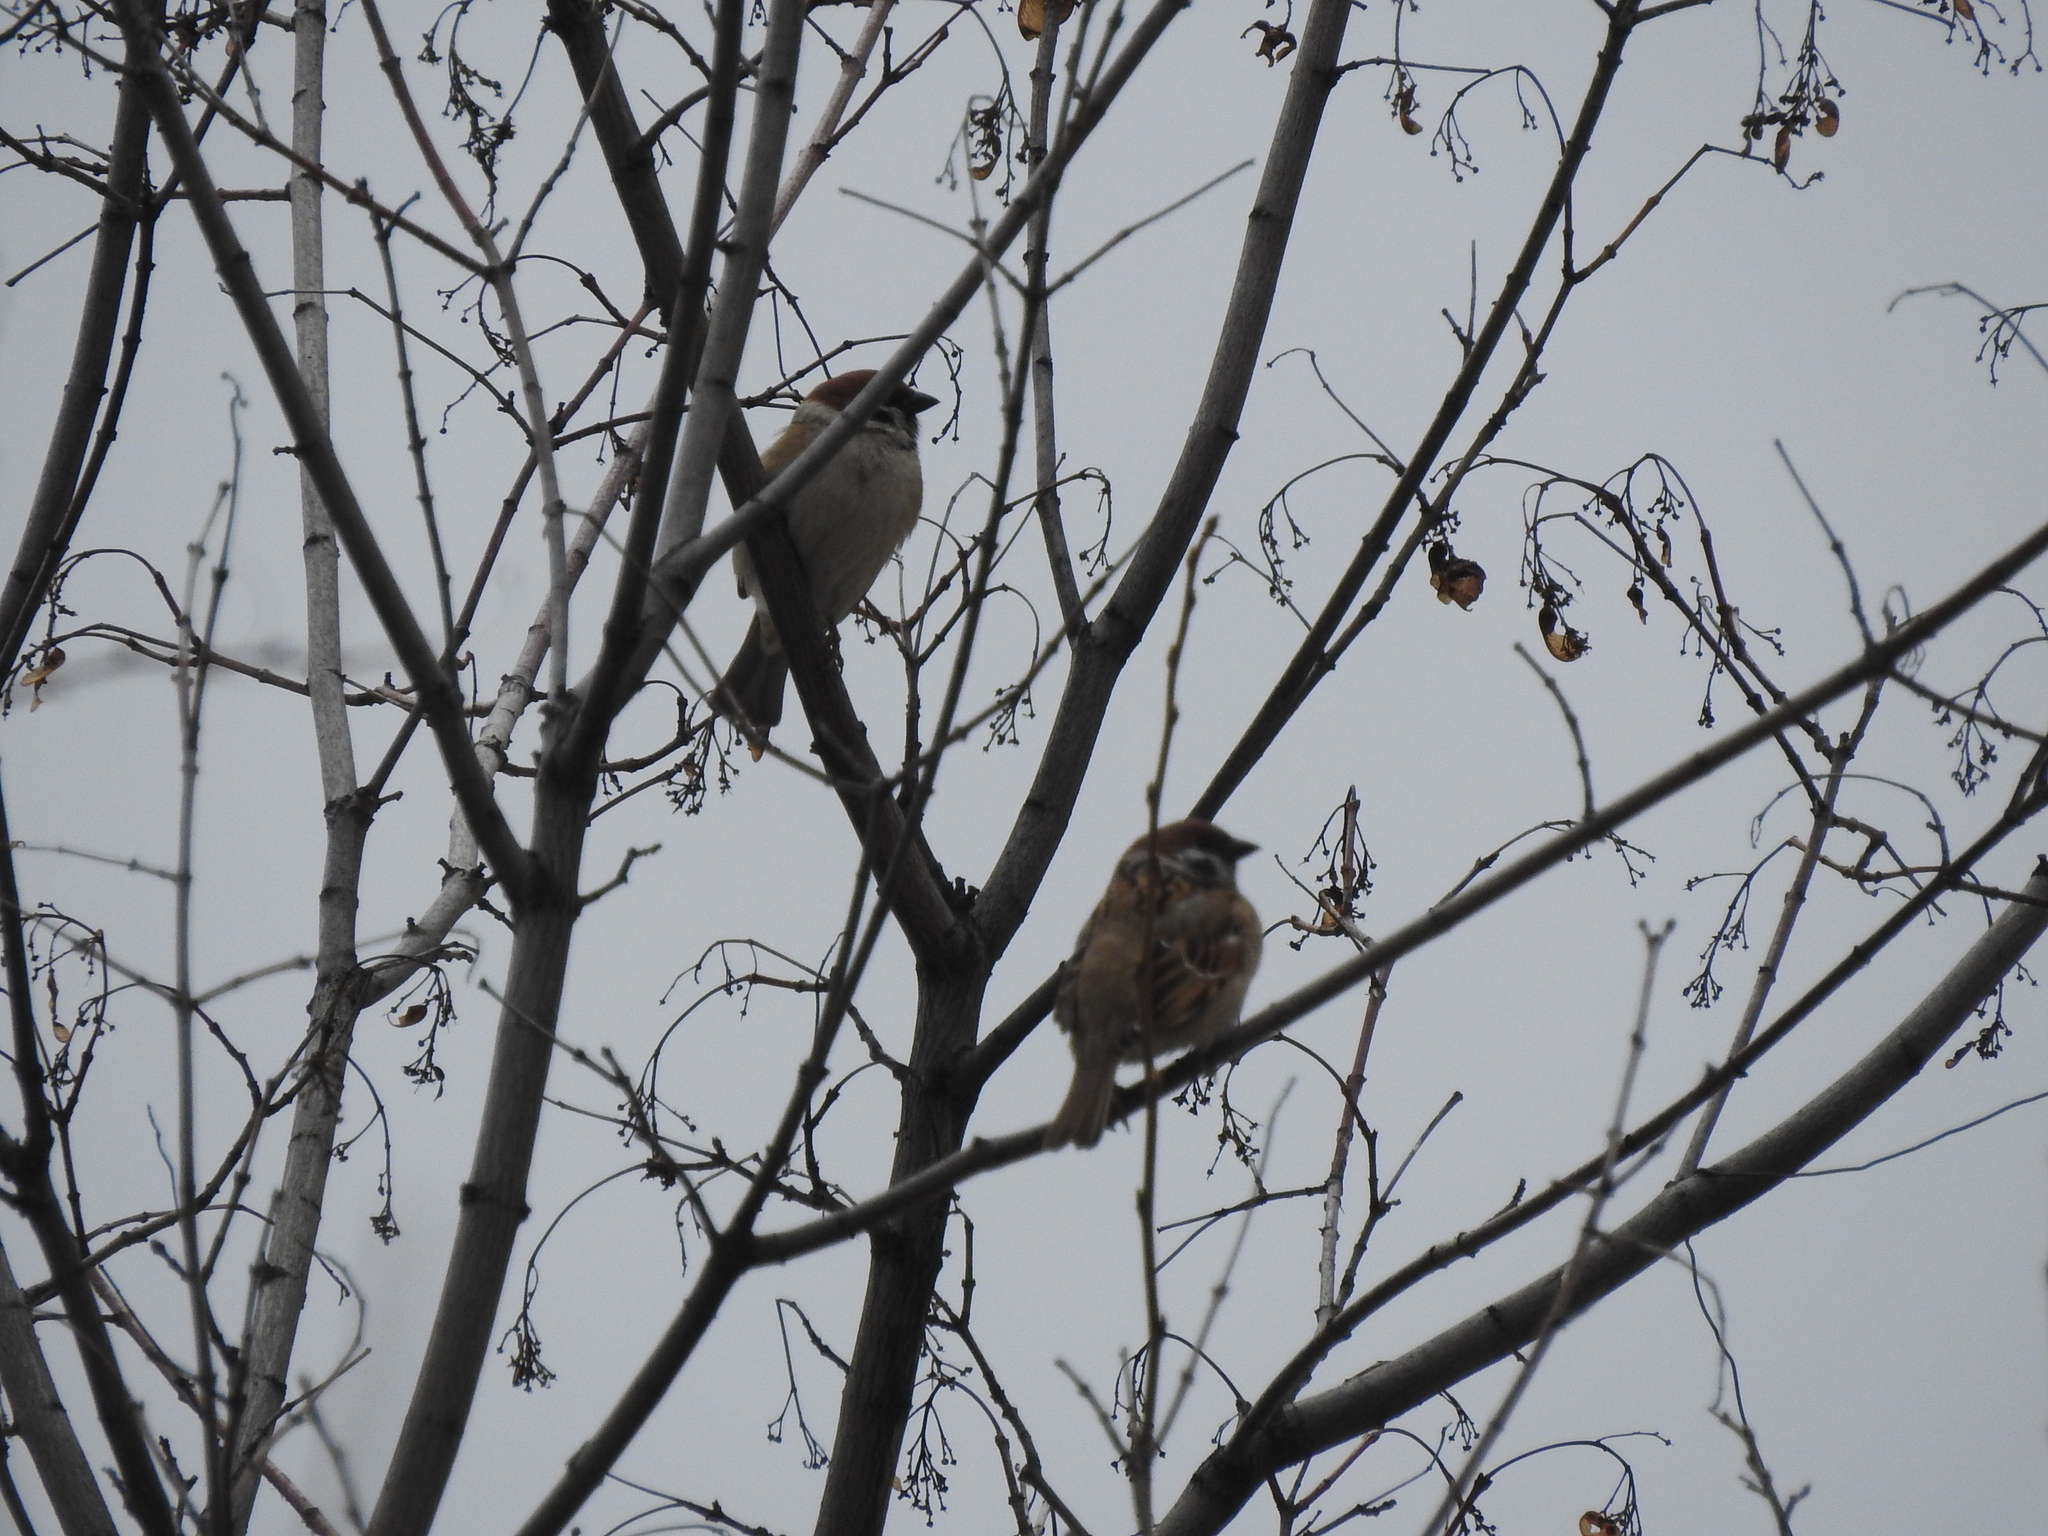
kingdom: Animalia
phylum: Chordata
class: Aves
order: Passeriformes
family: Passeridae
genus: Passer
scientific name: Passer montanus
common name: Eurasian tree sparrow
